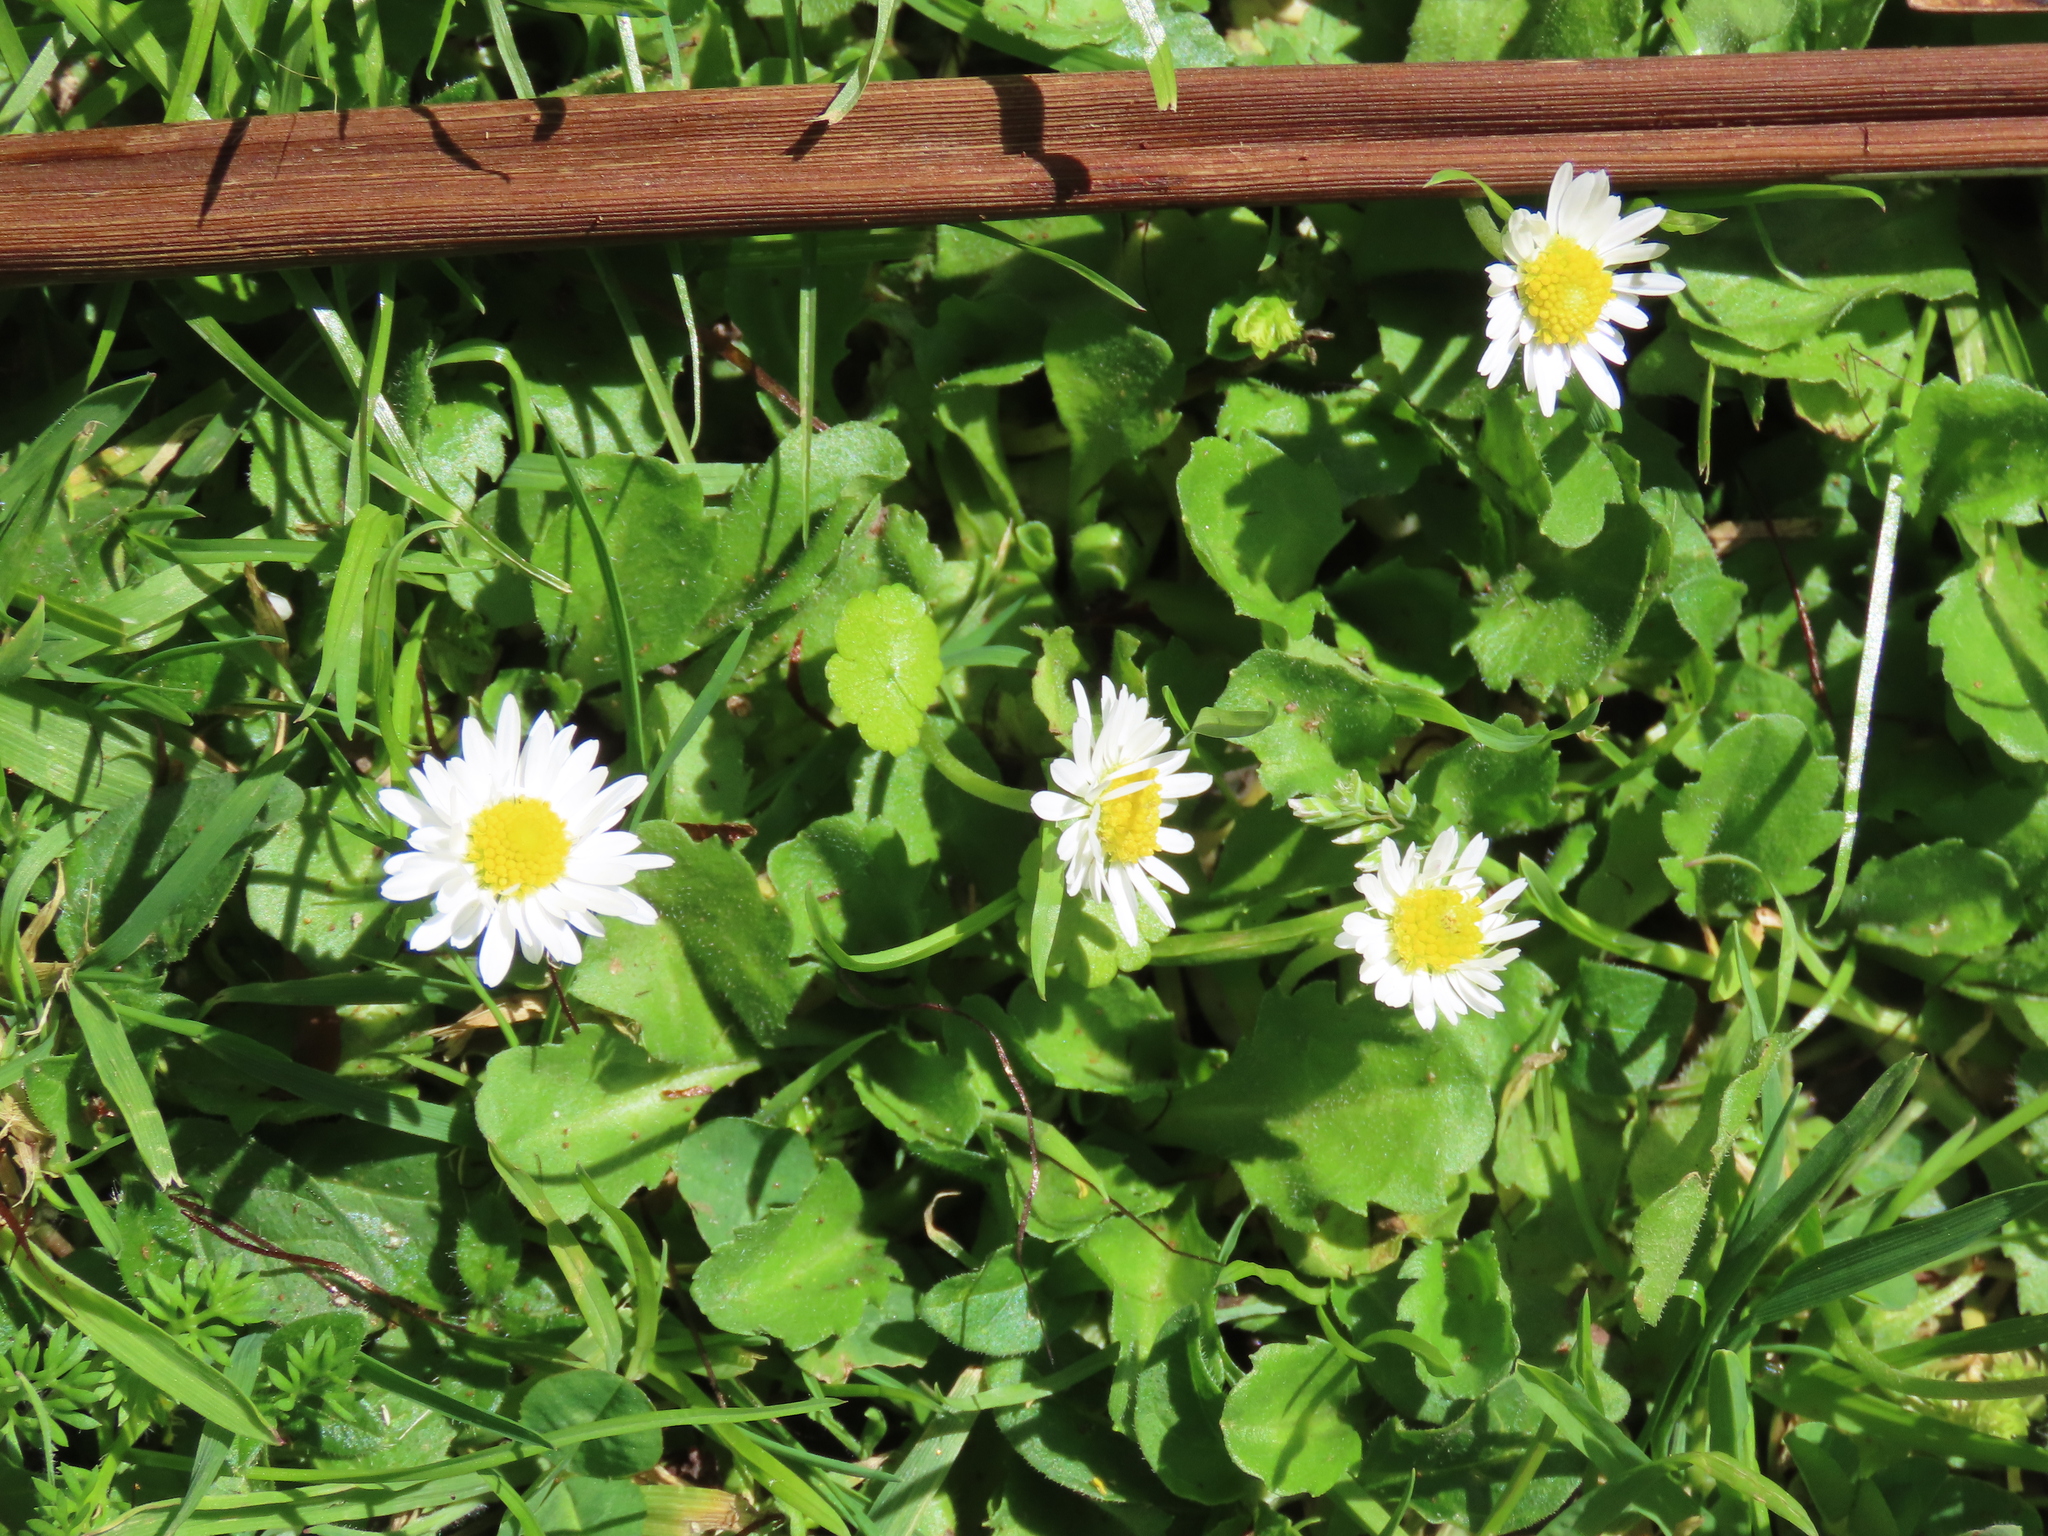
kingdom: Plantae
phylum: Tracheophyta
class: Magnoliopsida
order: Asterales
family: Asteraceae
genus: Bellis
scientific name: Bellis perennis
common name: Lawndaisy
